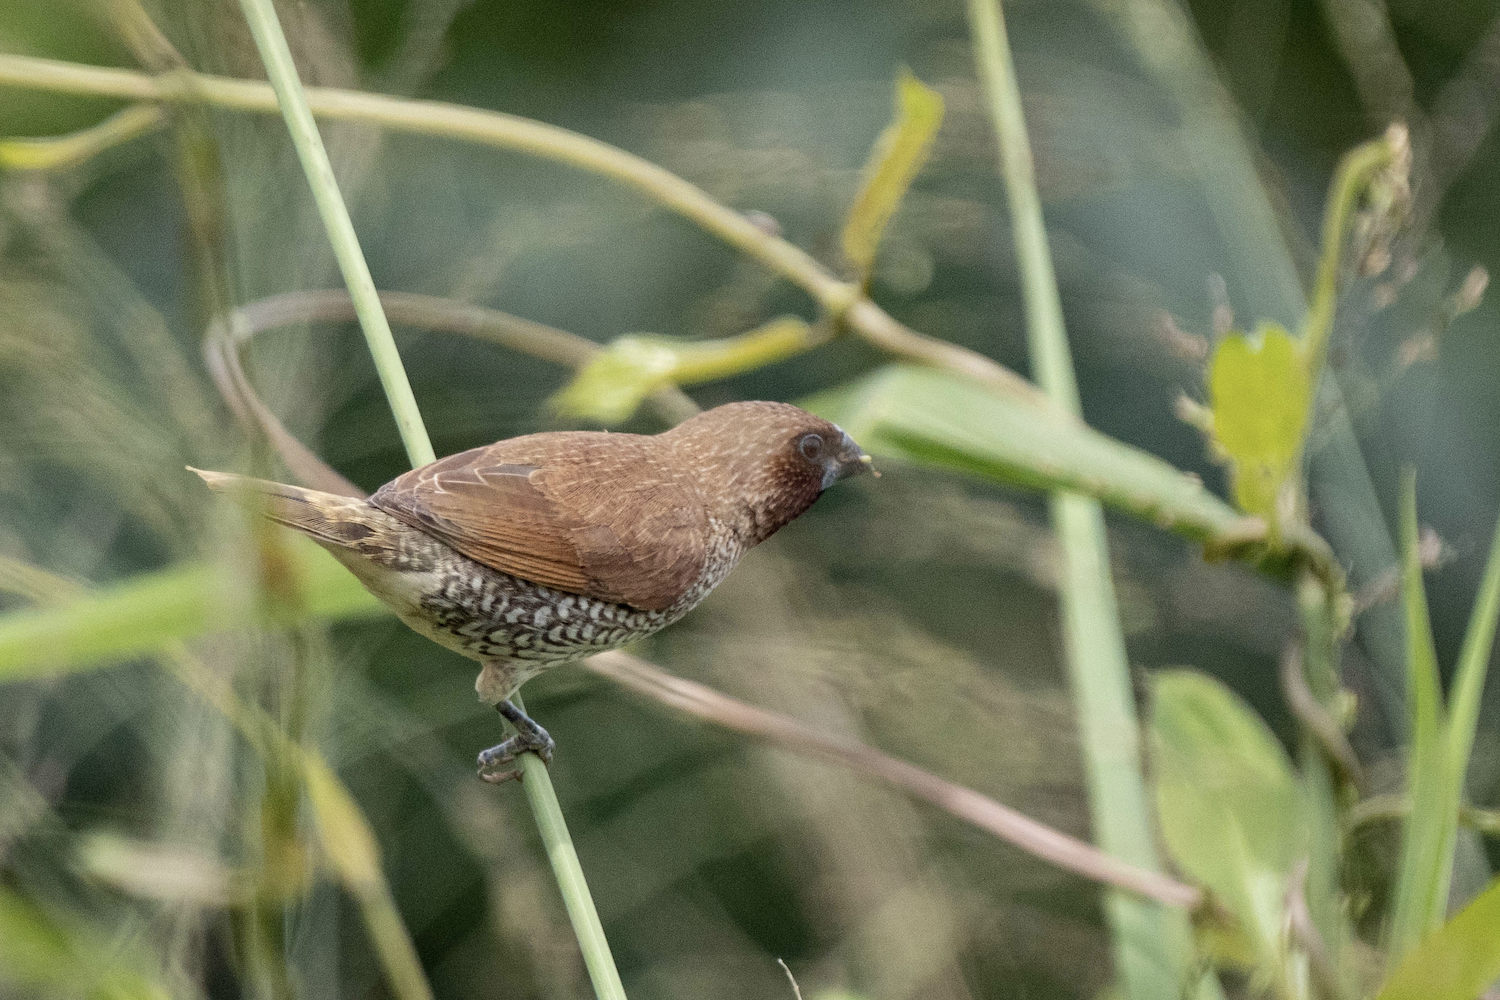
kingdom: Animalia
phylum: Chordata
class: Aves
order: Passeriformes
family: Estrildidae
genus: Lonchura
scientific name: Lonchura punctulata
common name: Scaly-breasted munia
